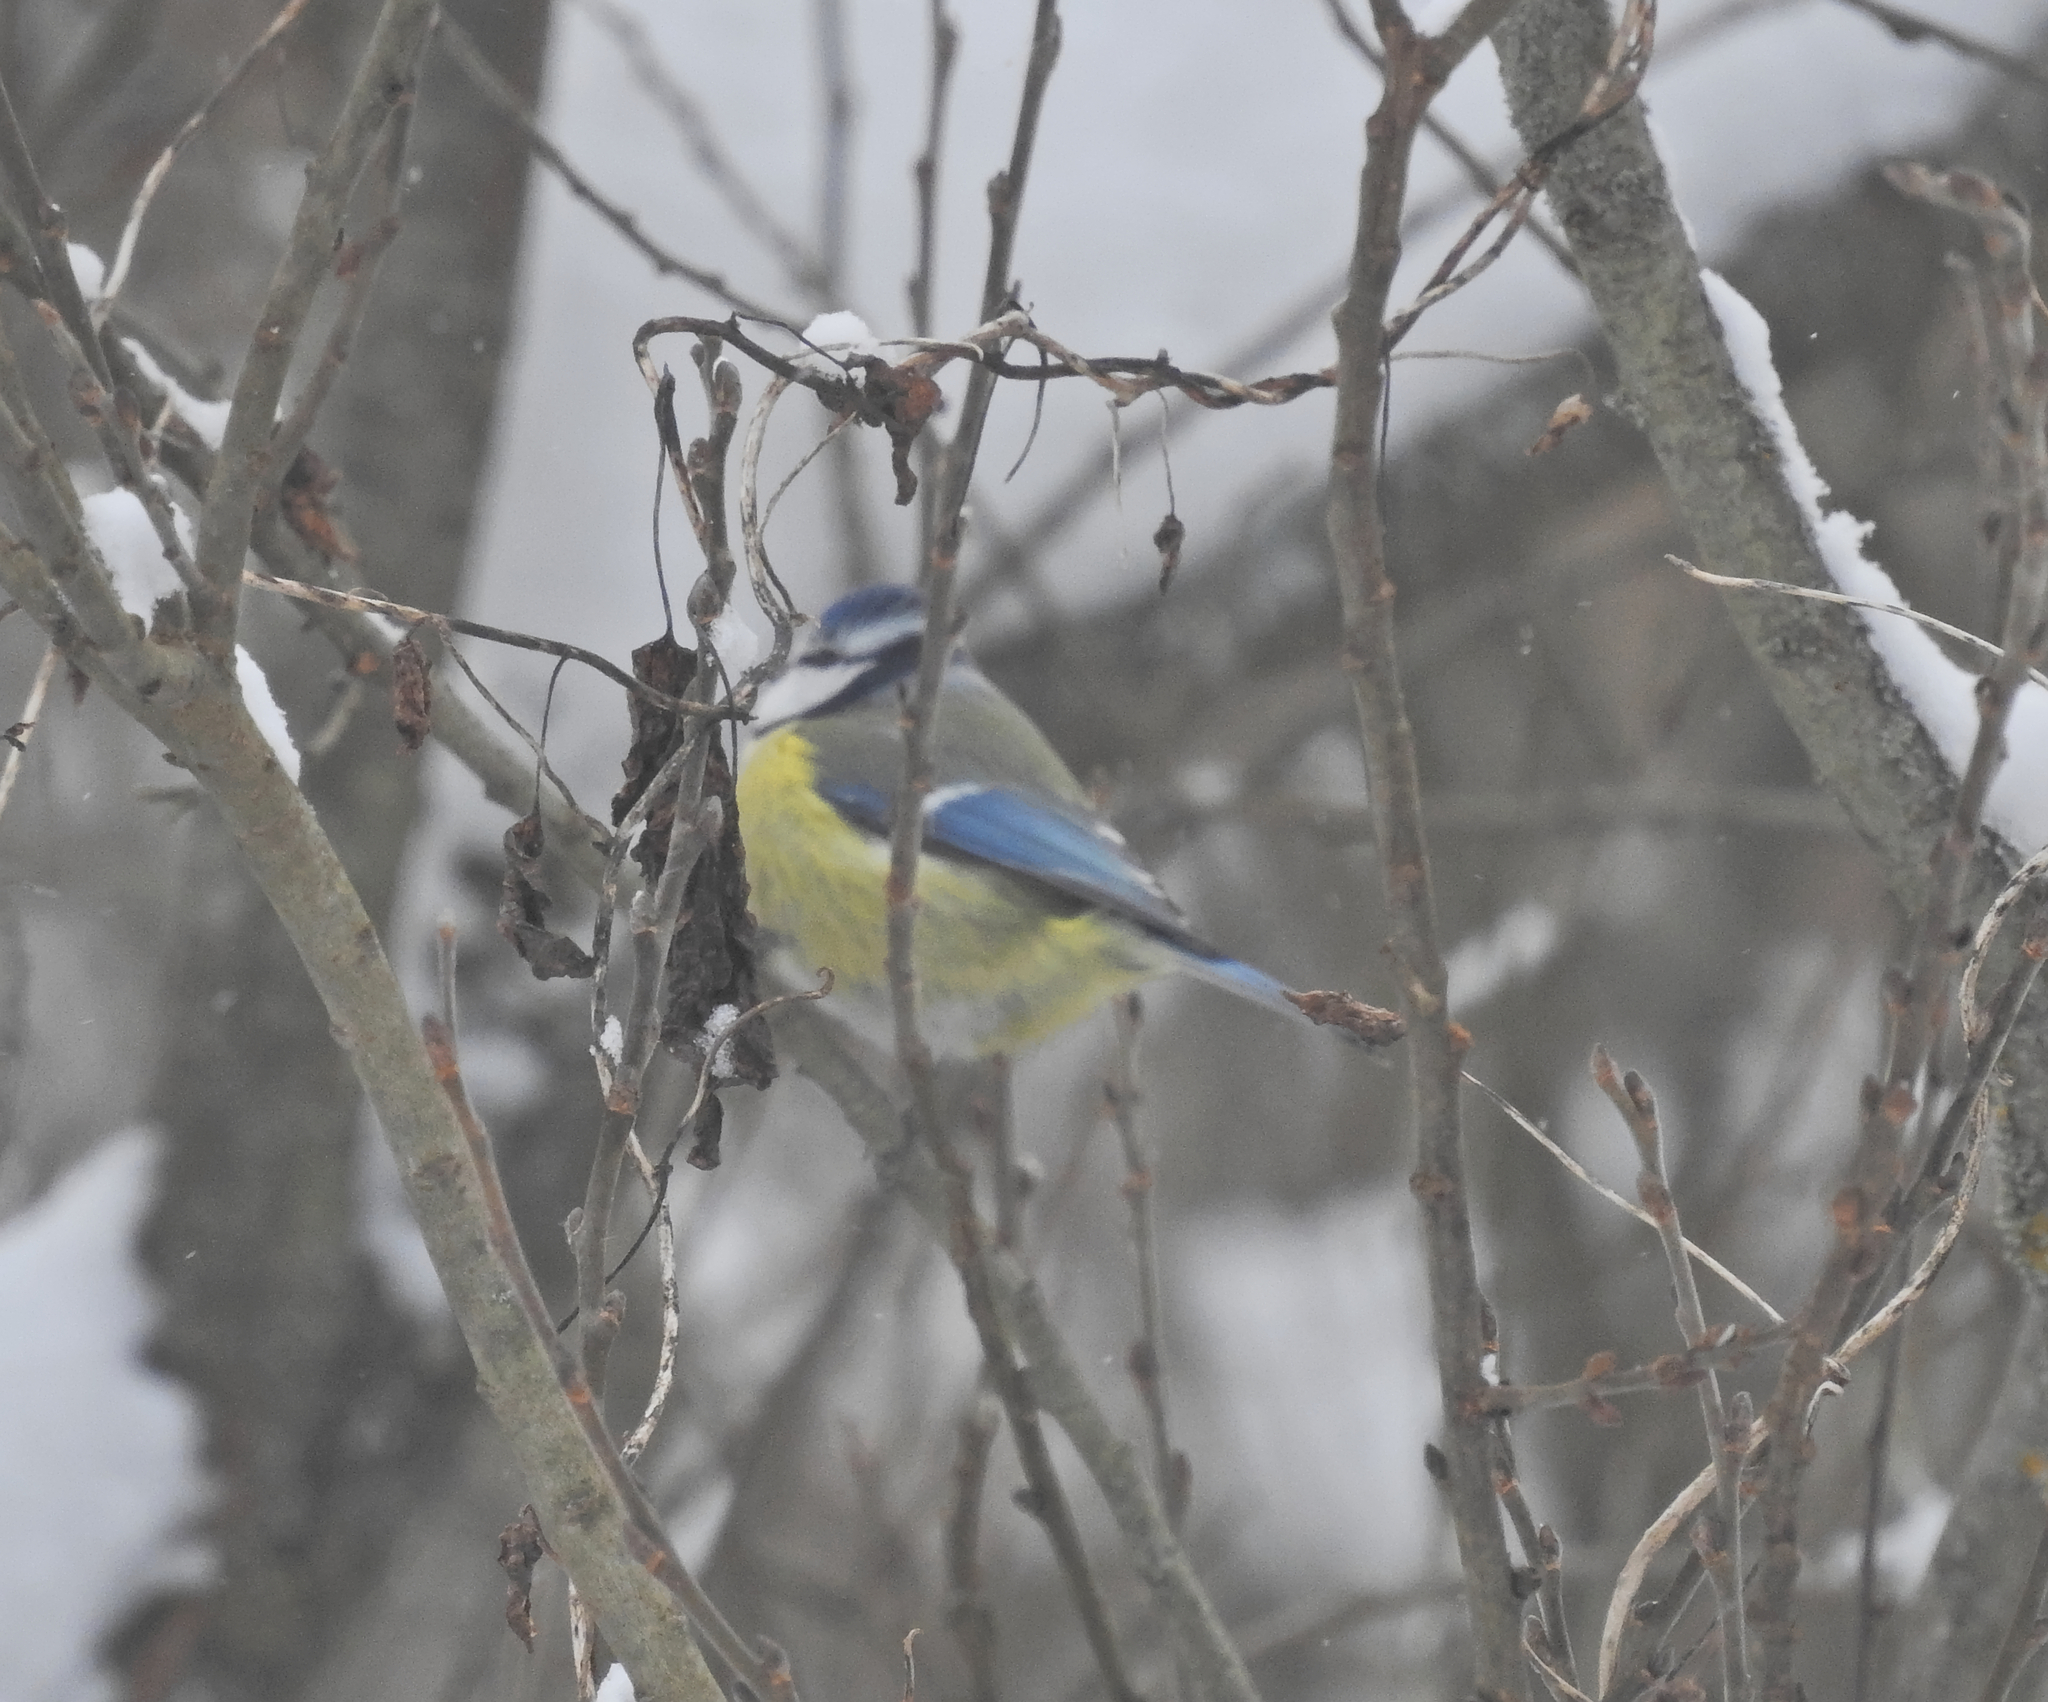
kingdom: Animalia
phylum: Chordata
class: Aves
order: Passeriformes
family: Paridae
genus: Cyanistes
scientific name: Cyanistes caeruleus
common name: Eurasian blue tit
